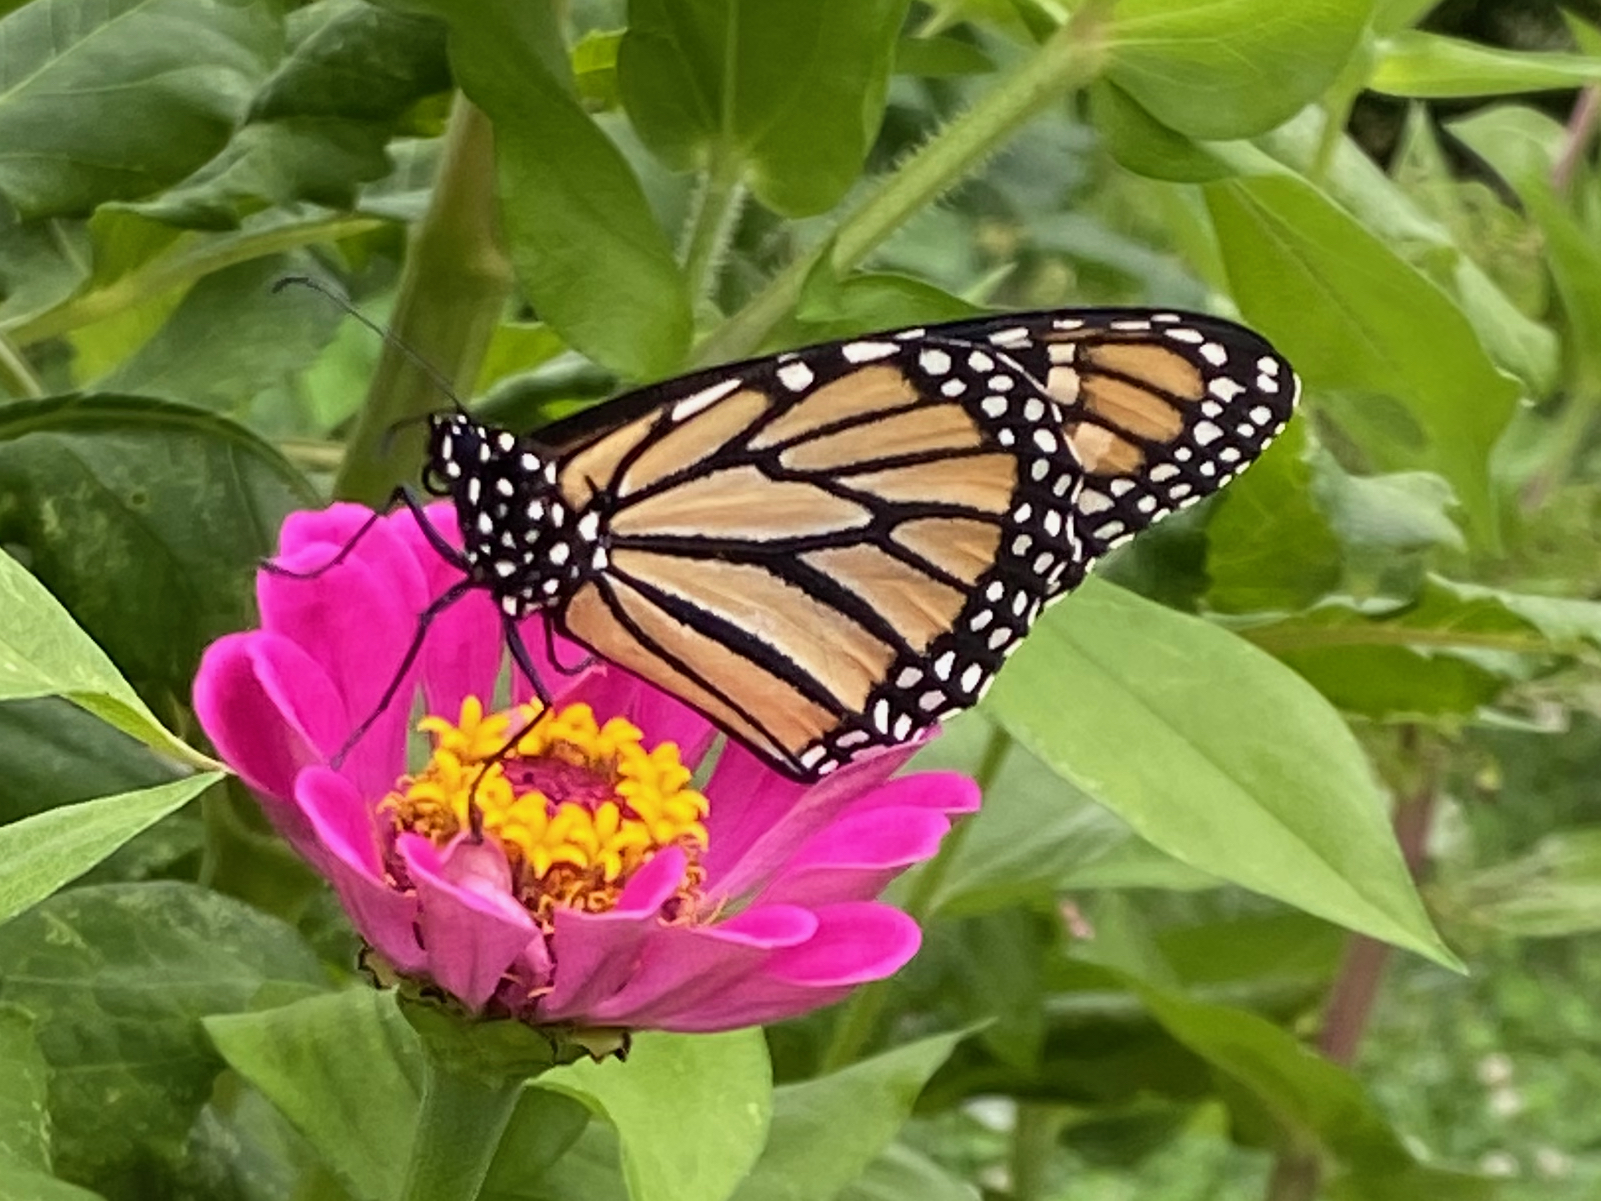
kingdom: Animalia
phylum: Arthropoda
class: Insecta
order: Lepidoptera
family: Nymphalidae
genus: Danaus
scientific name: Danaus plexippus
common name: Monarch
